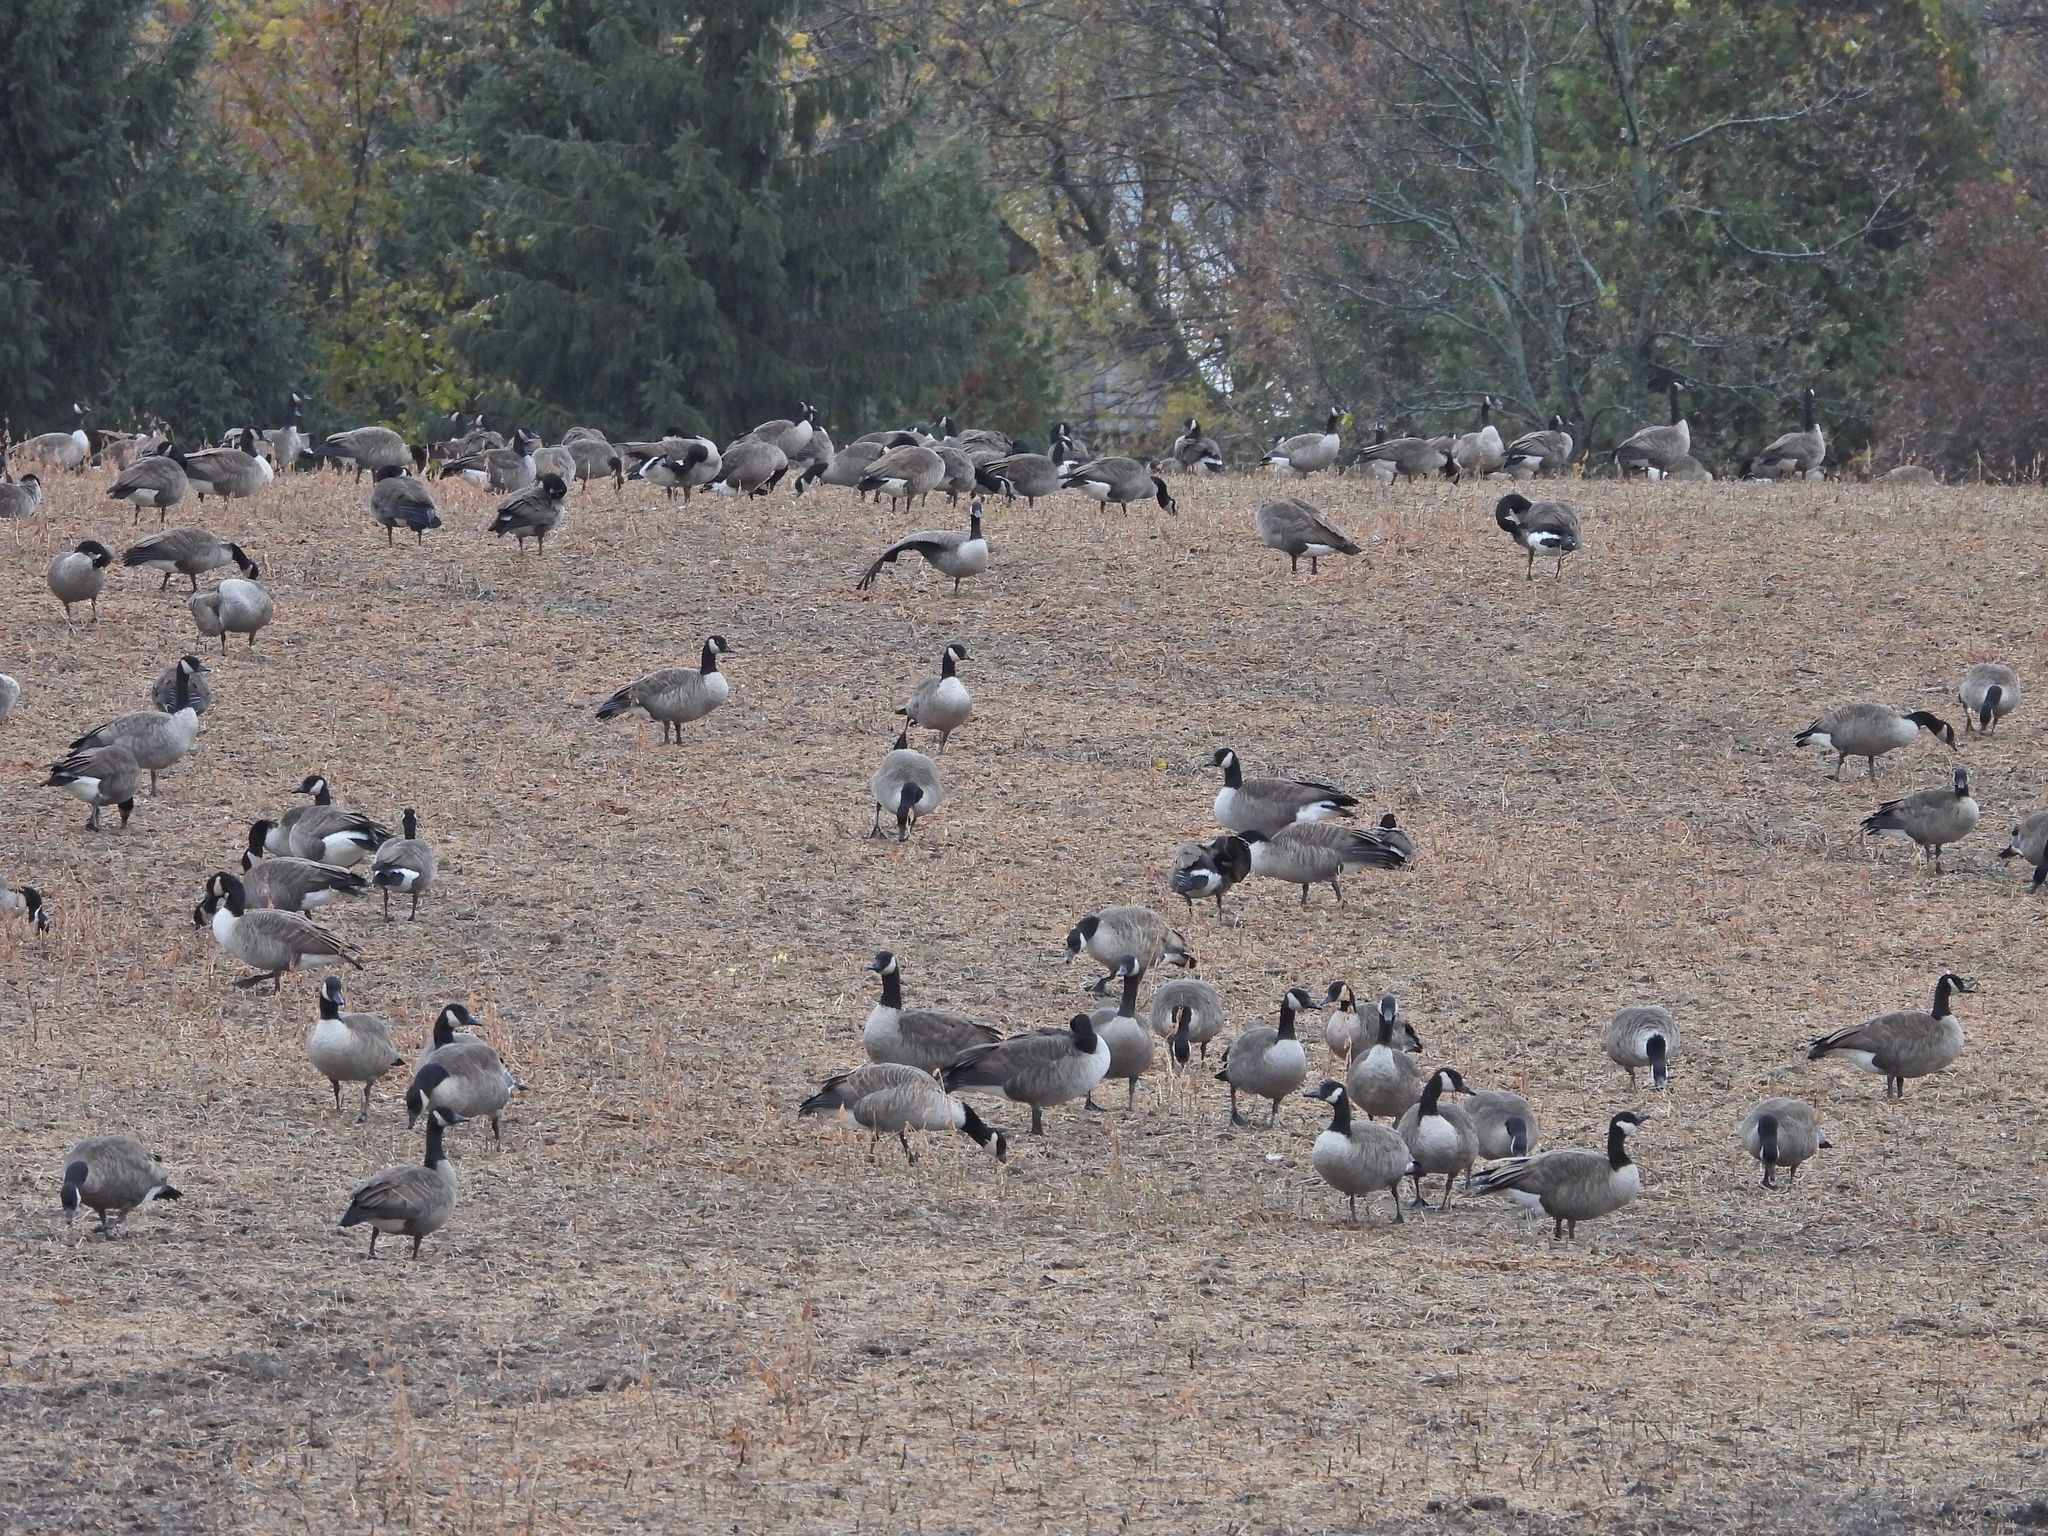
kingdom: Animalia
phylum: Chordata
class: Aves
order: Anseriformes
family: Anatidae
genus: Branta
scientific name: Branta canadensis
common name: Canada goose
